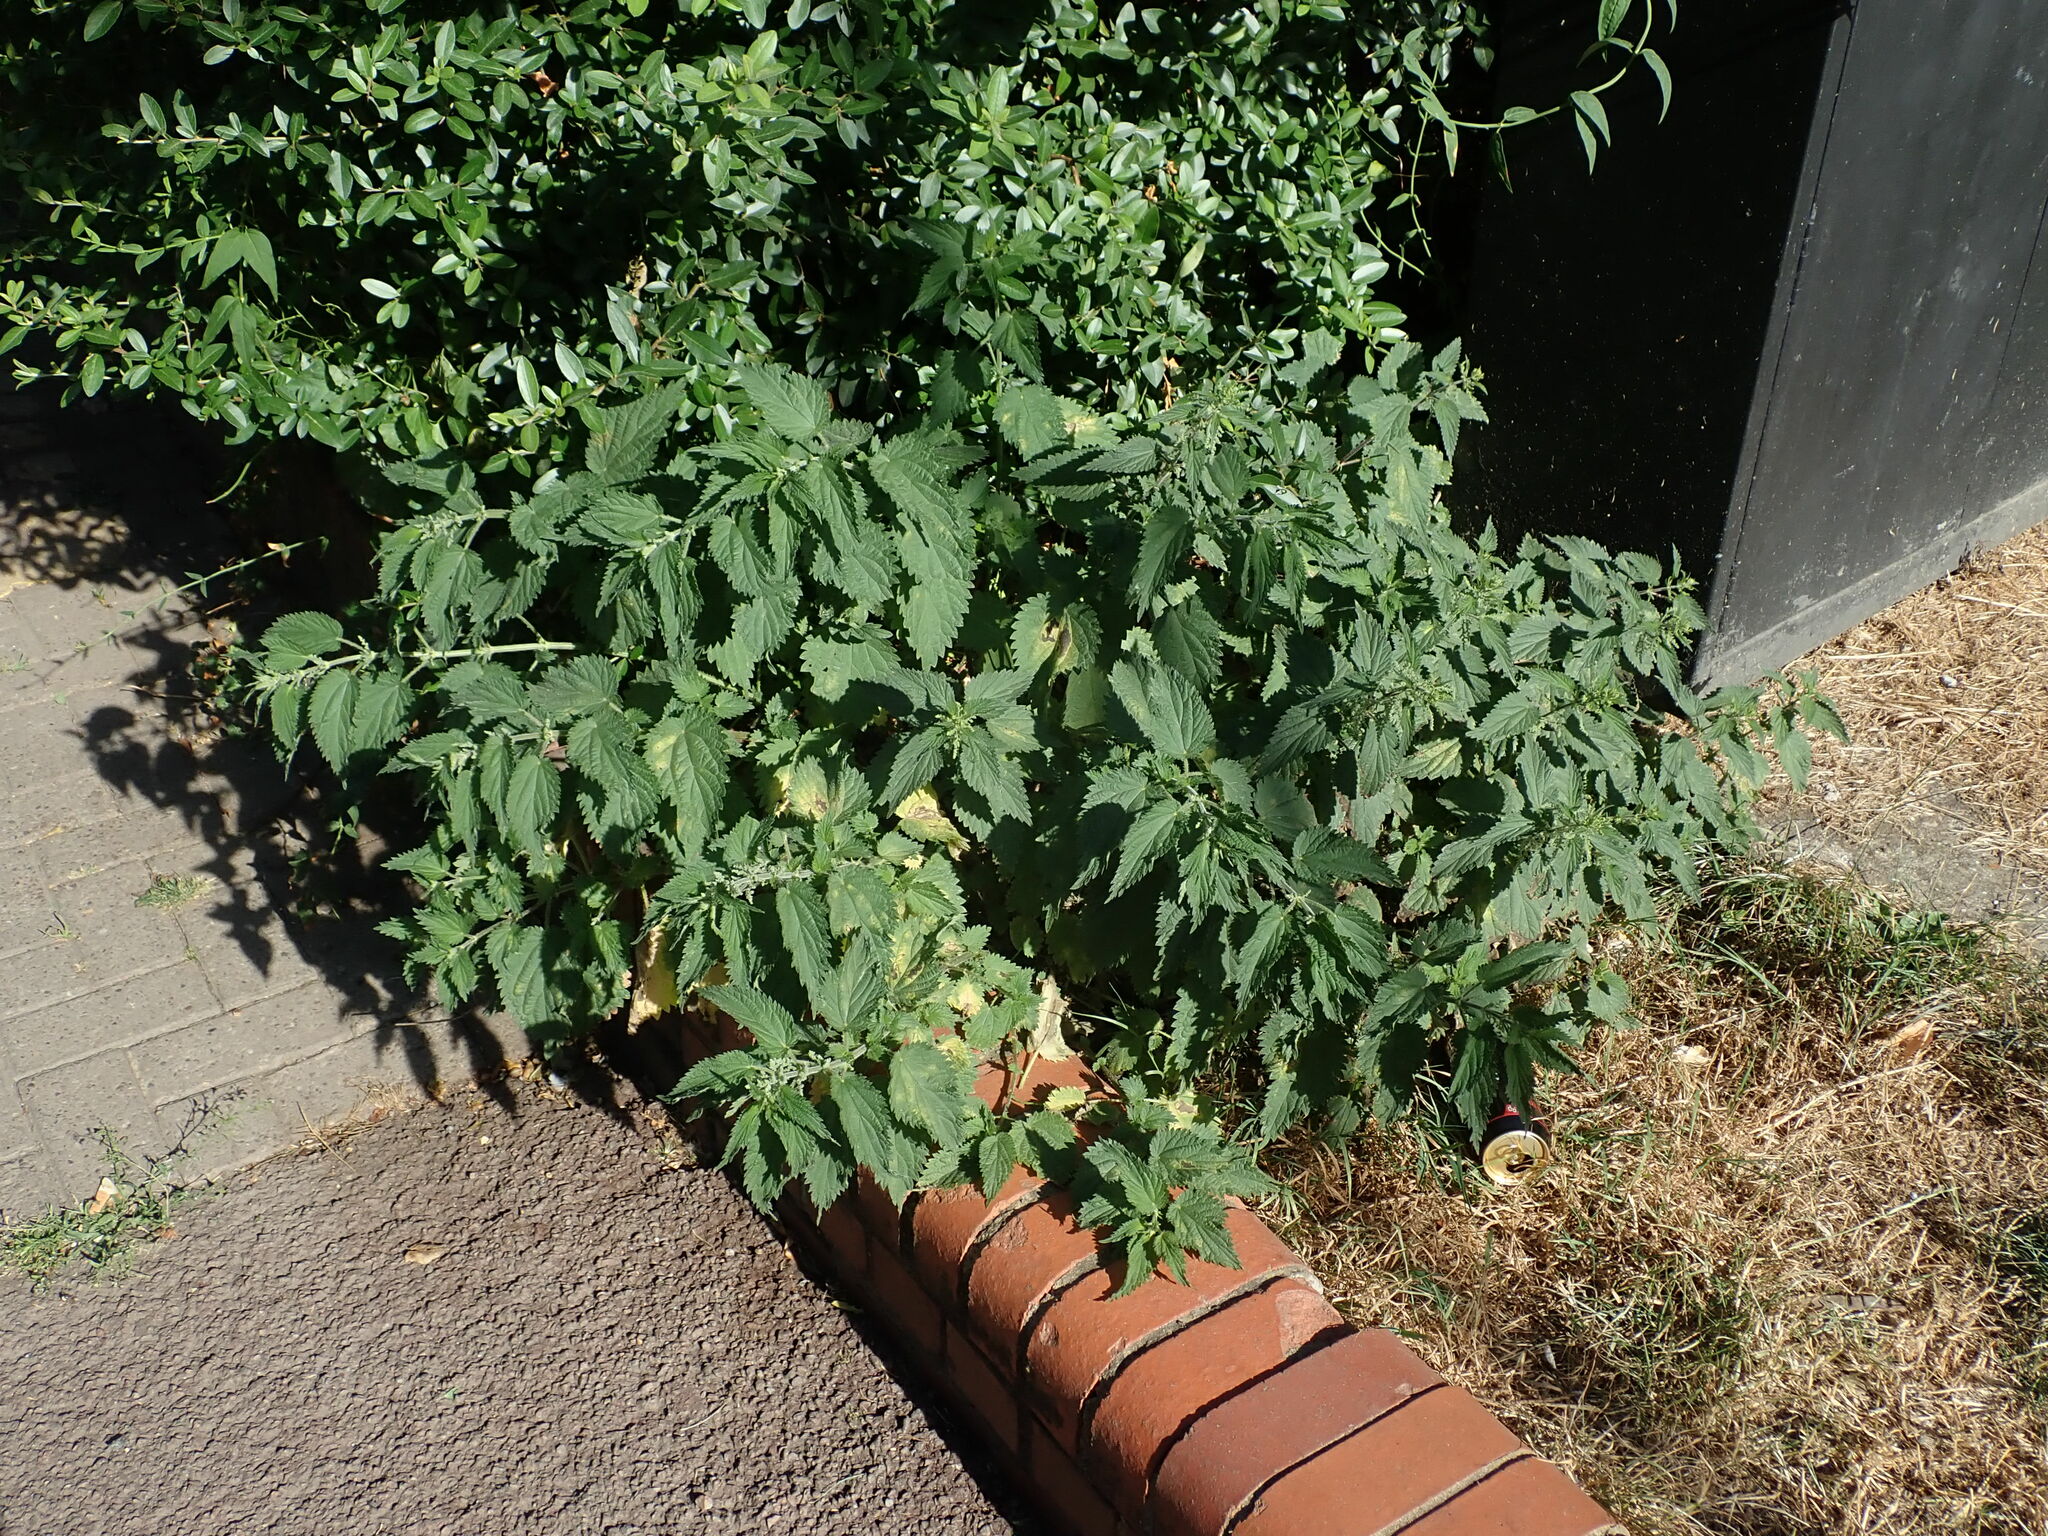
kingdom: Plantae
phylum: Tracheophyta
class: Magnoliopsida
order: Rosales
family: Urticaceae
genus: Urtica
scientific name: Urtica dioica
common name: Common nettle
